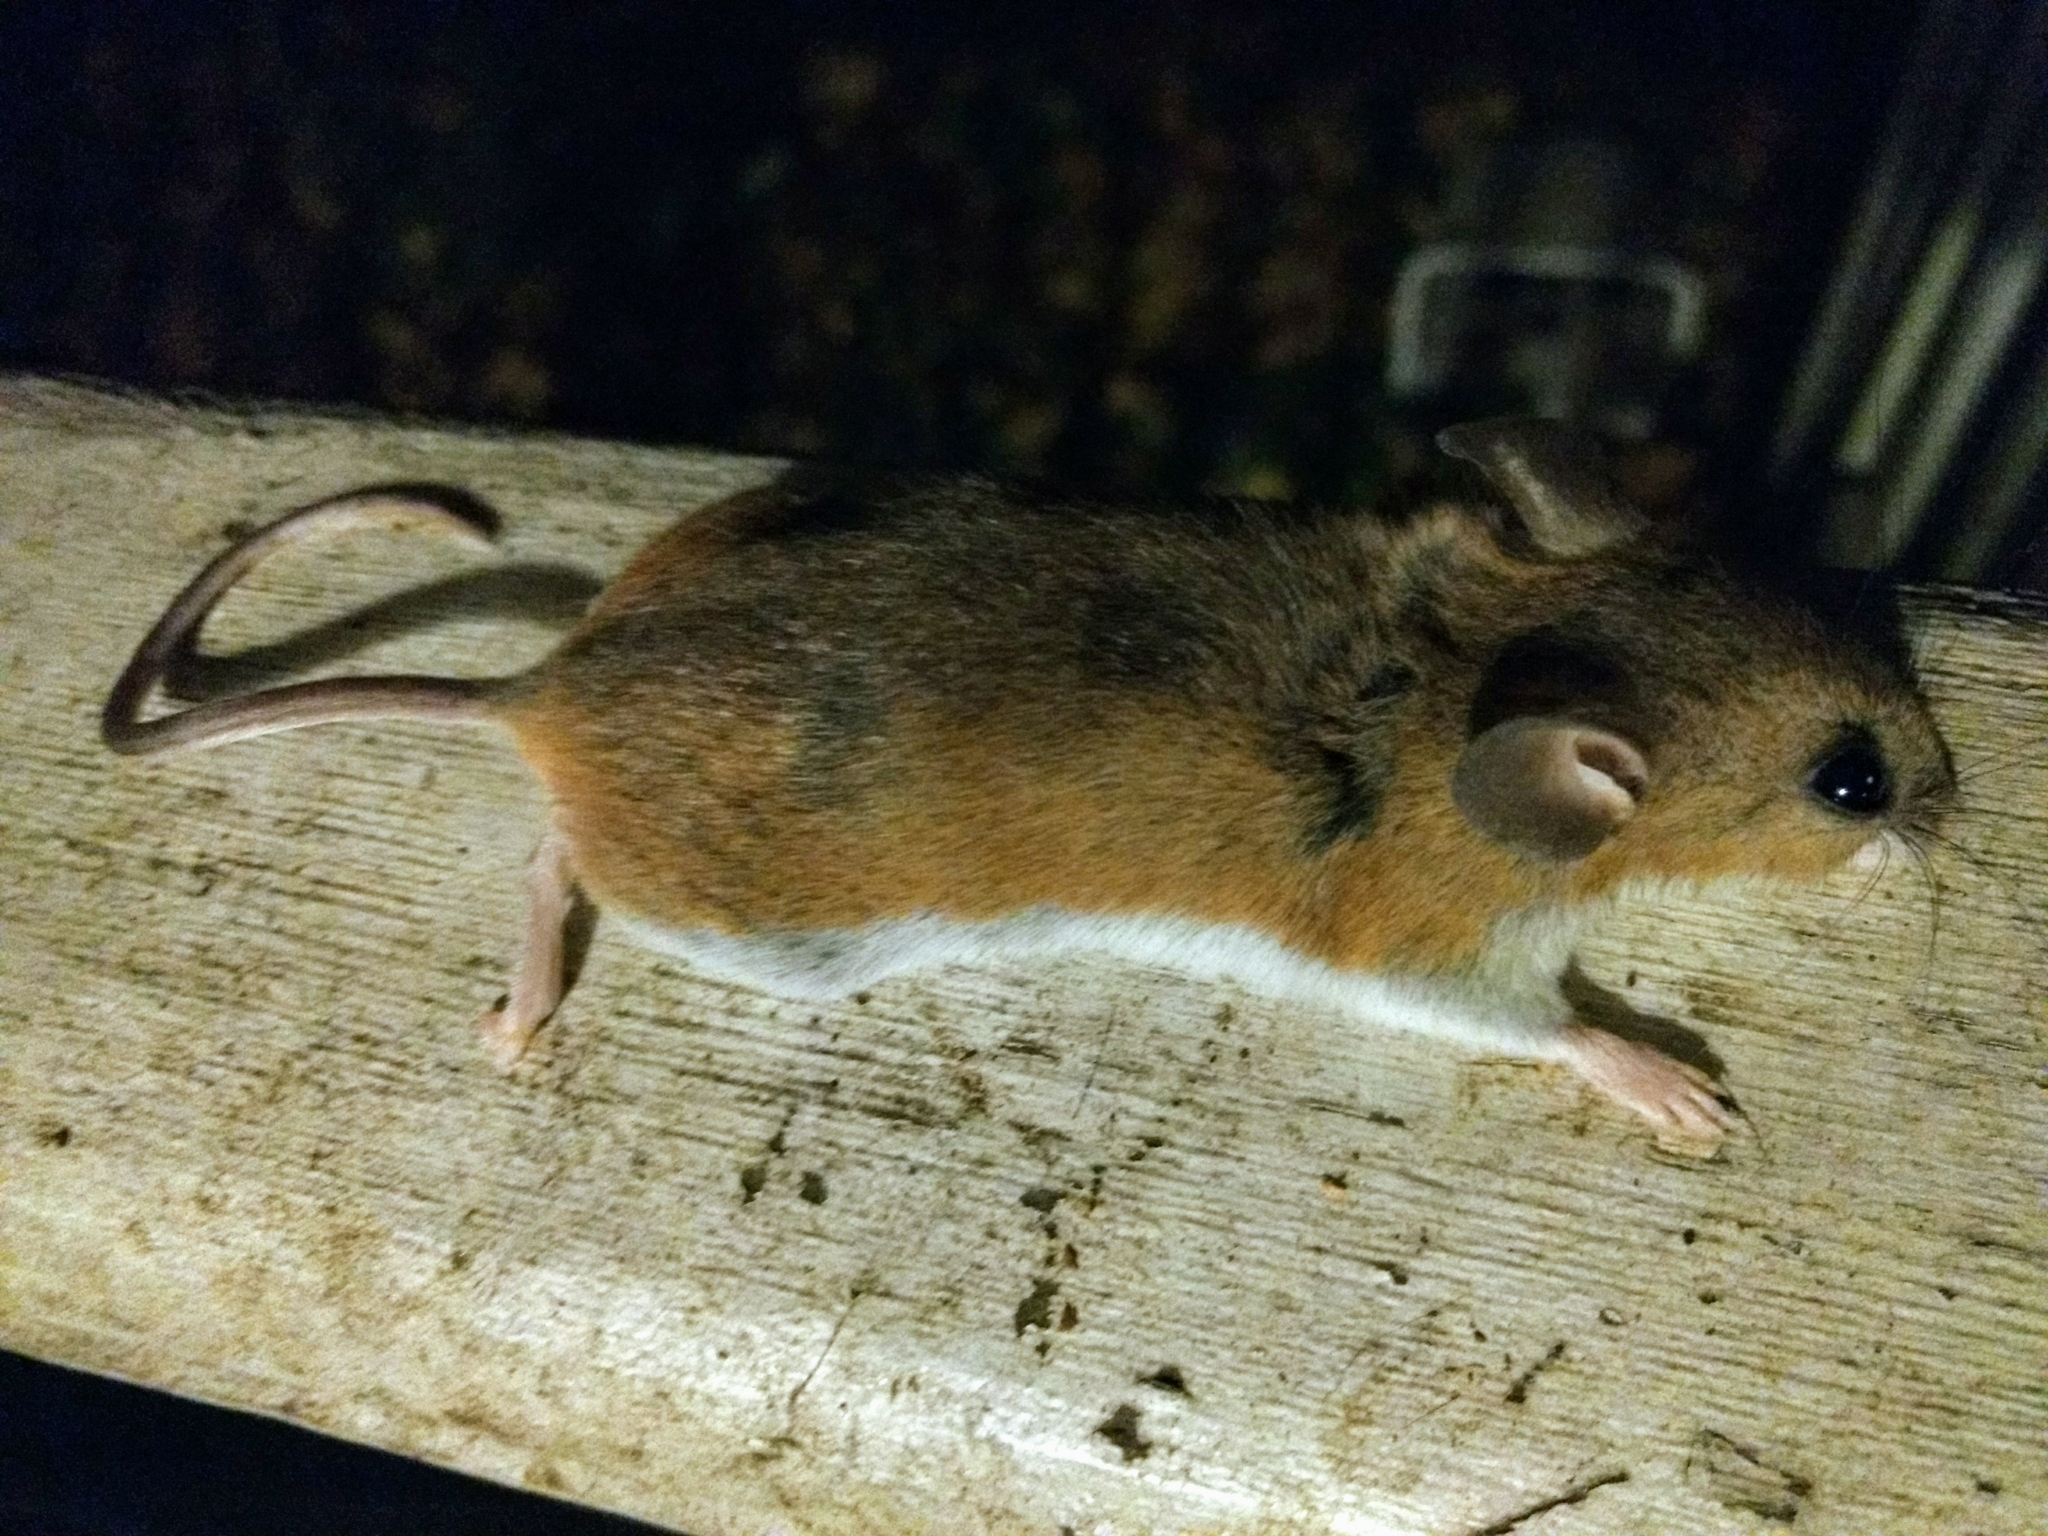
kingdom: Animalia
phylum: Chordata
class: Mammalia
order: Rodentia
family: Cricetidae
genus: Peromyscus
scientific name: Peromyscus leucopus
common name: White-footed deermouse
